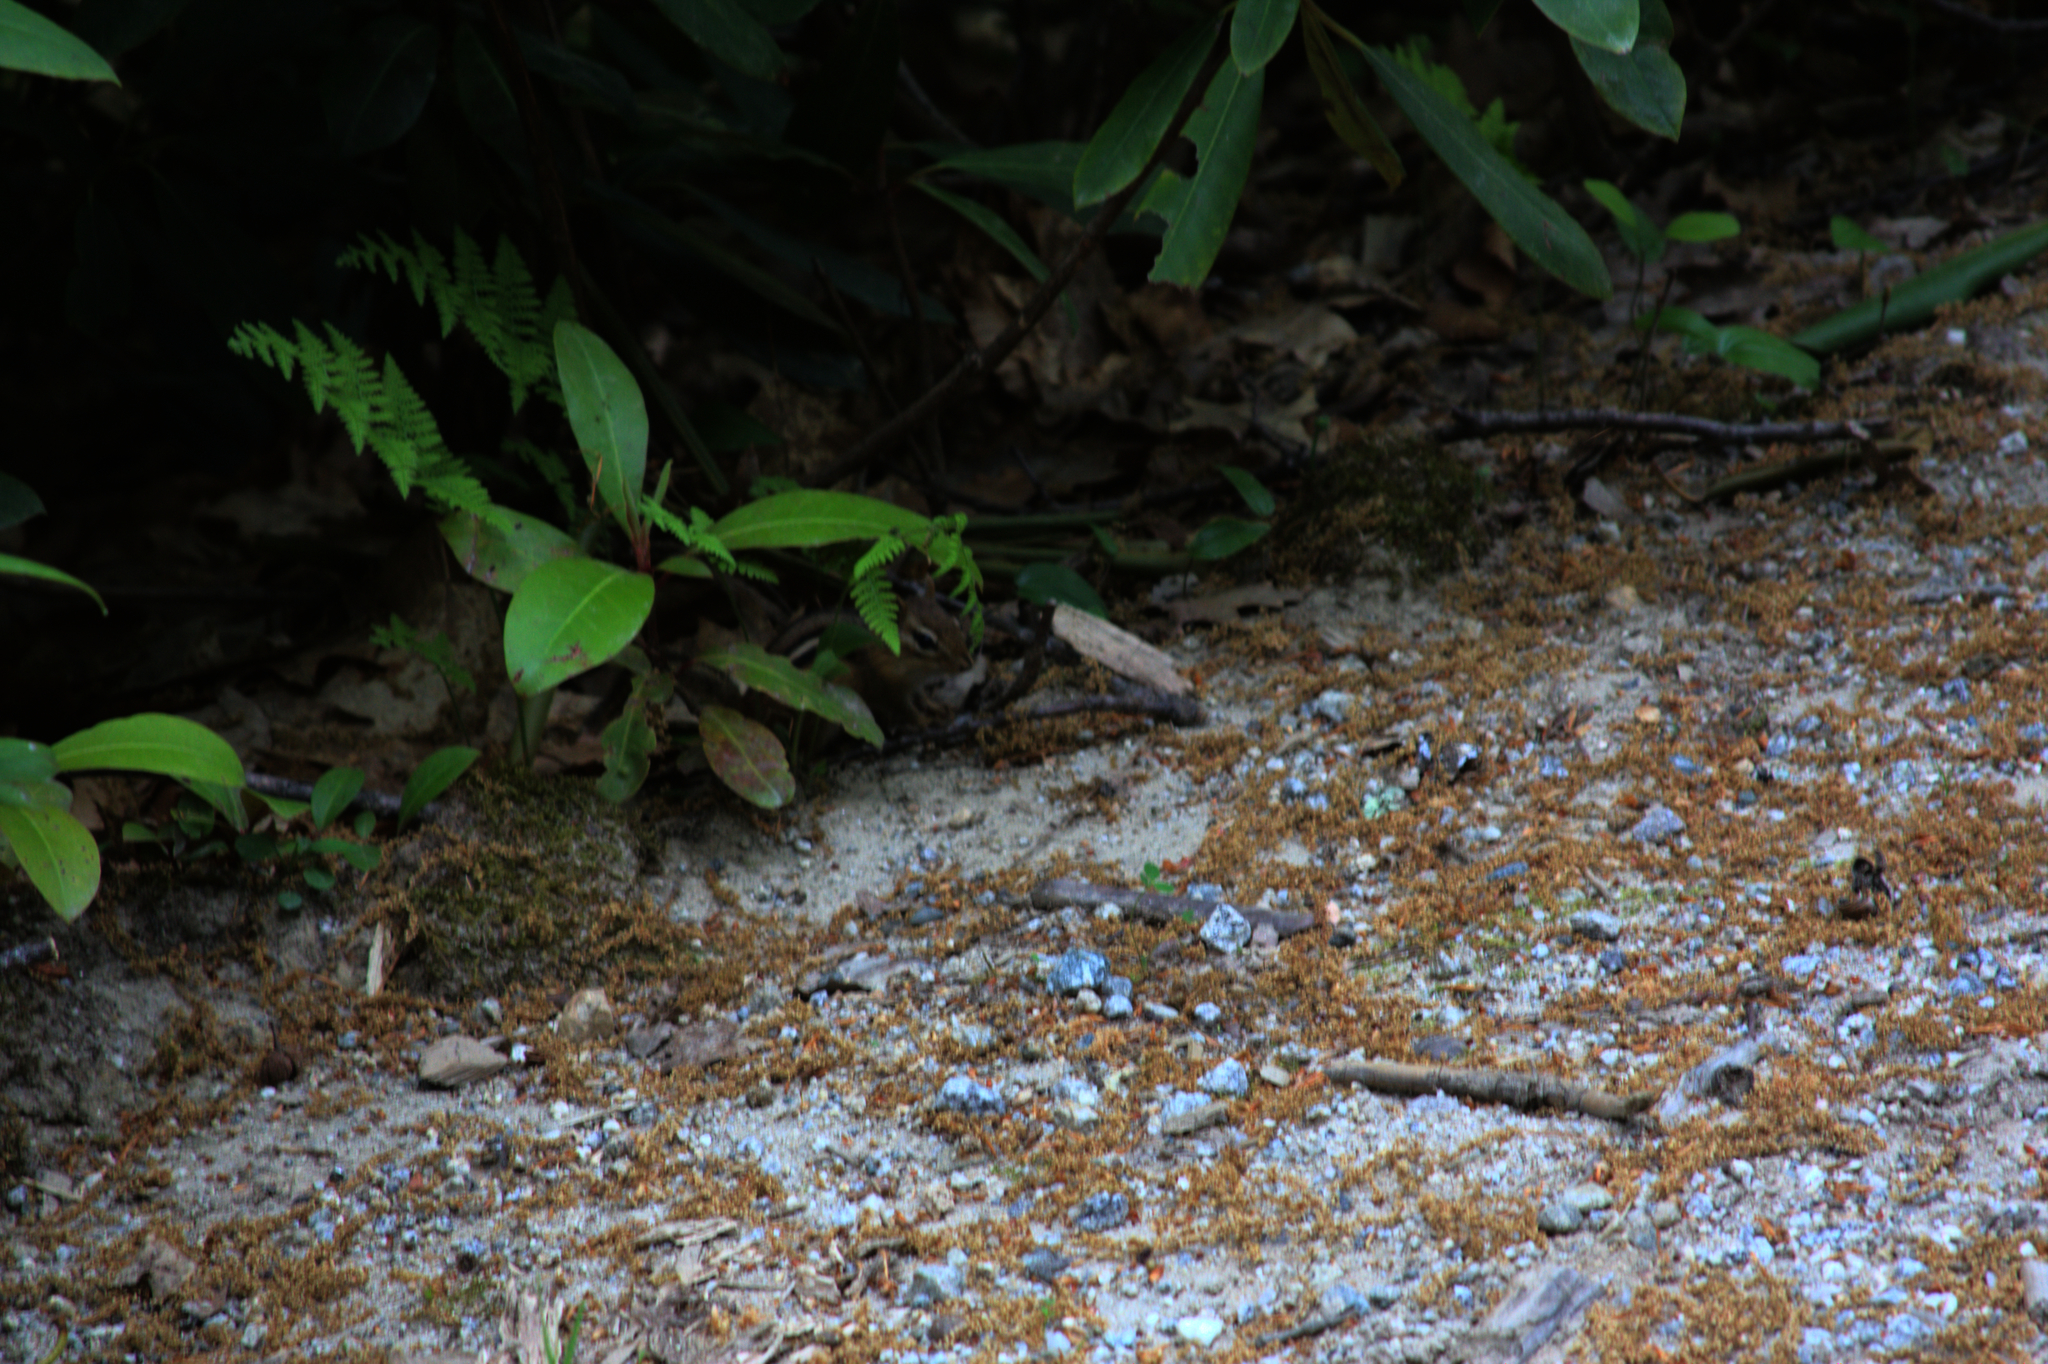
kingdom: Animalia
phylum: Chordata
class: Mammalia
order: Rodentia
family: Sciuridae
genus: Tamias
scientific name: Tamias striatus
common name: Eastern chipmunk
